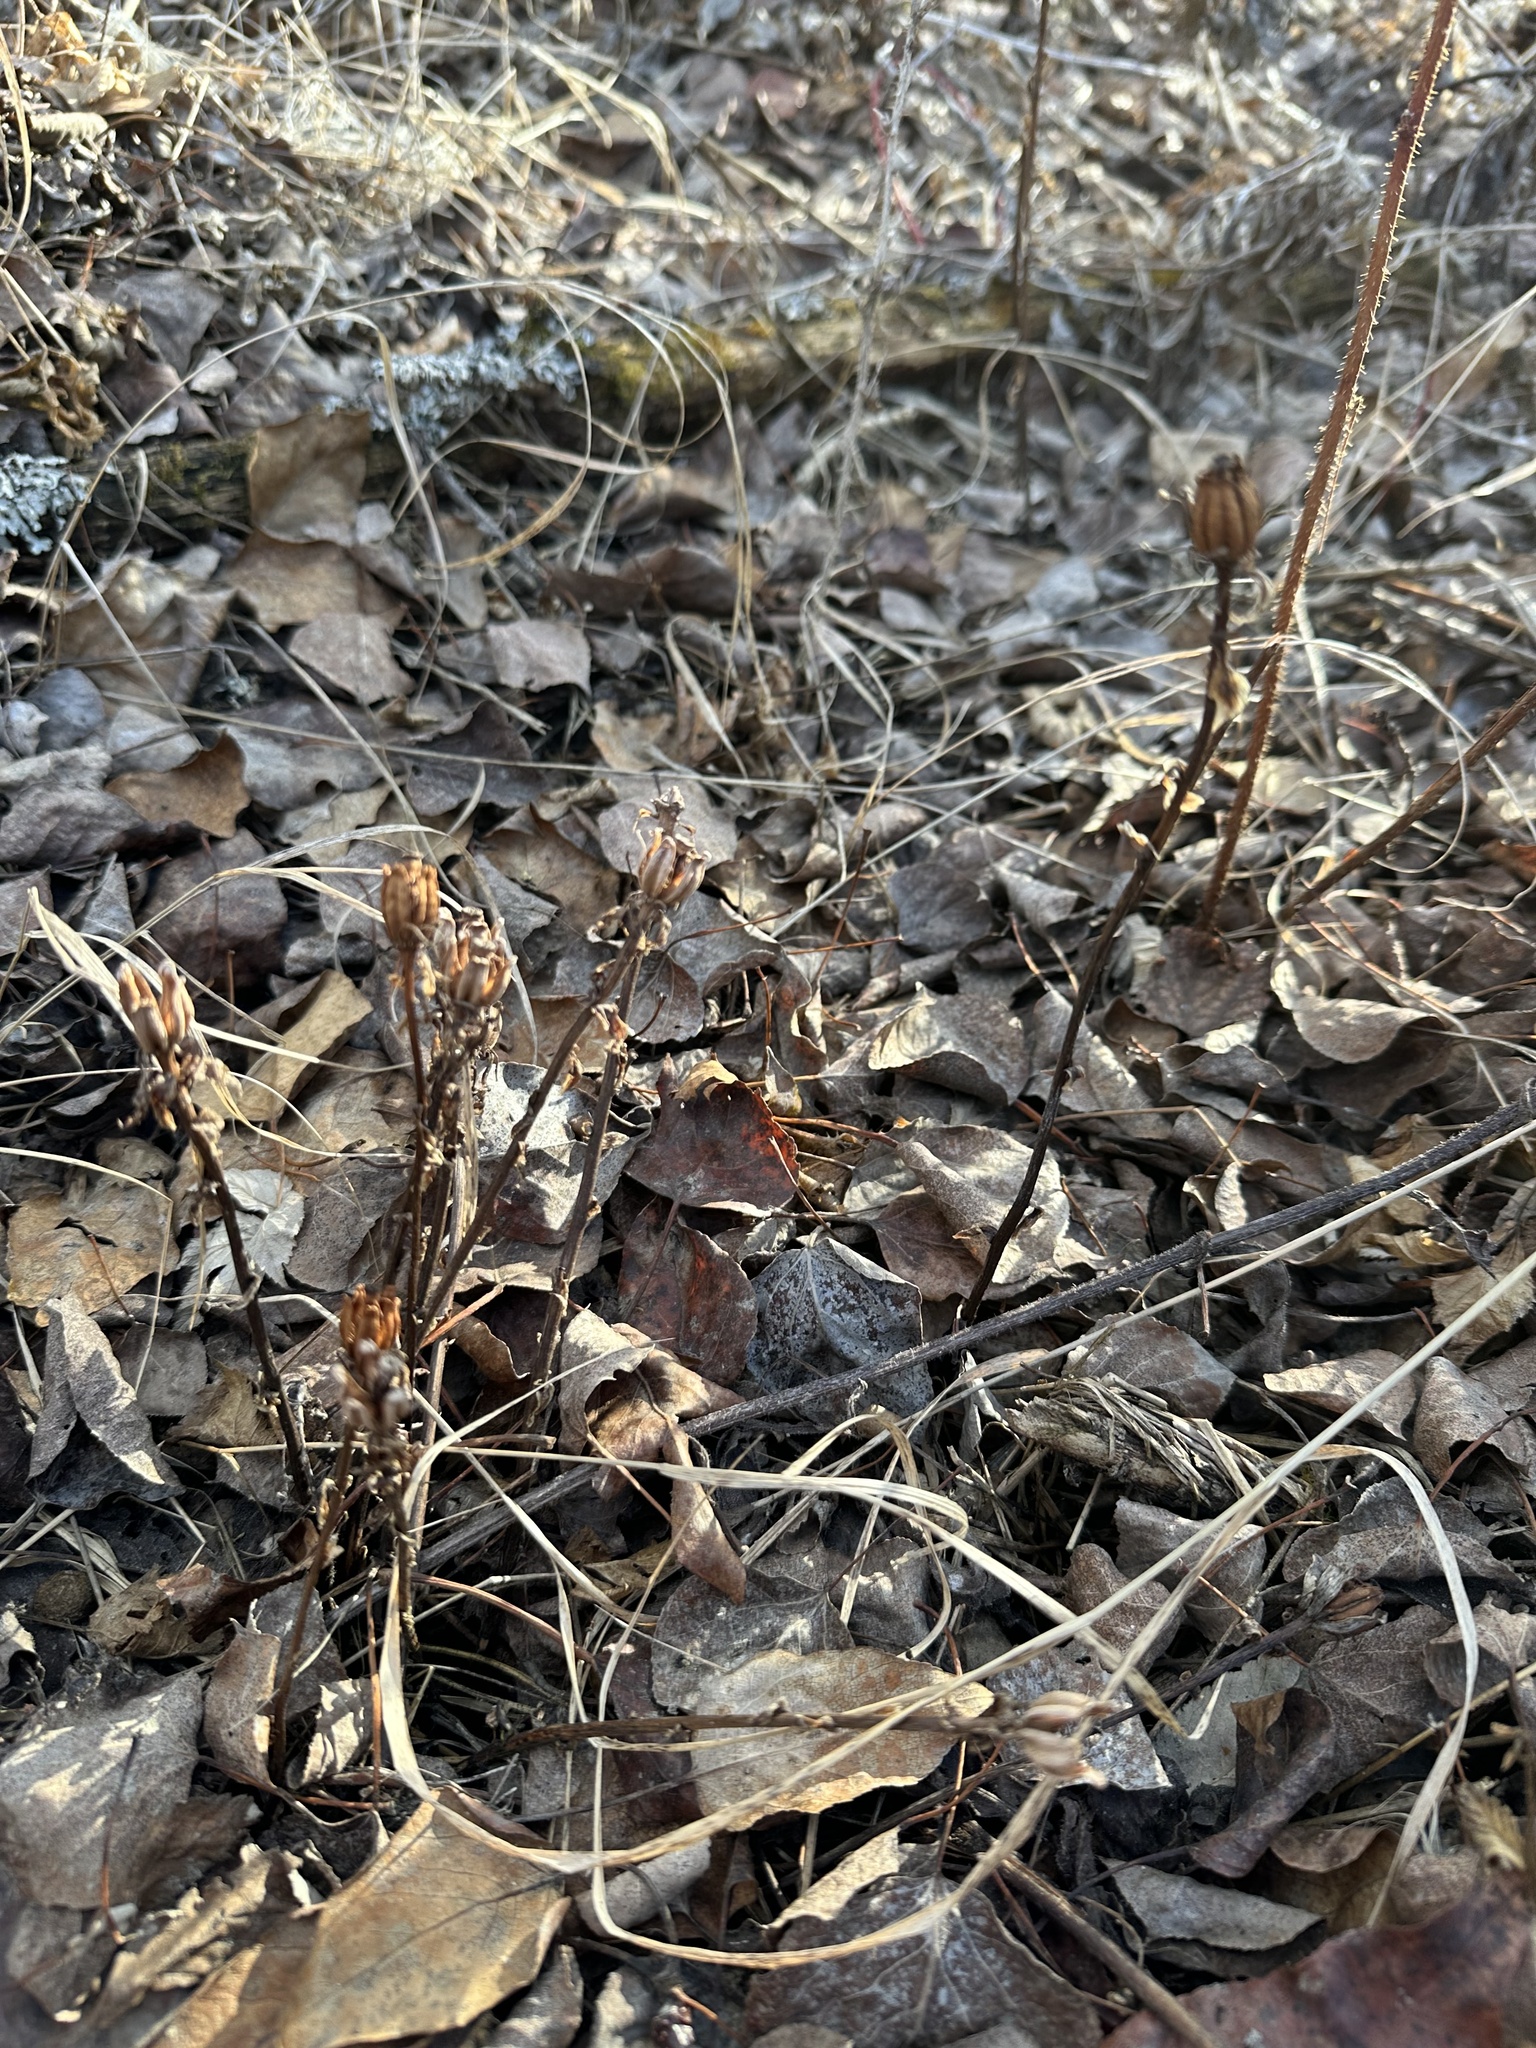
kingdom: Plantae
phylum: Tracheophyta
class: Magnoliopsida
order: Ericales
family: Ericaceae
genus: Monotropa
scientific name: Monotropa uniflora
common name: Convulsion root
